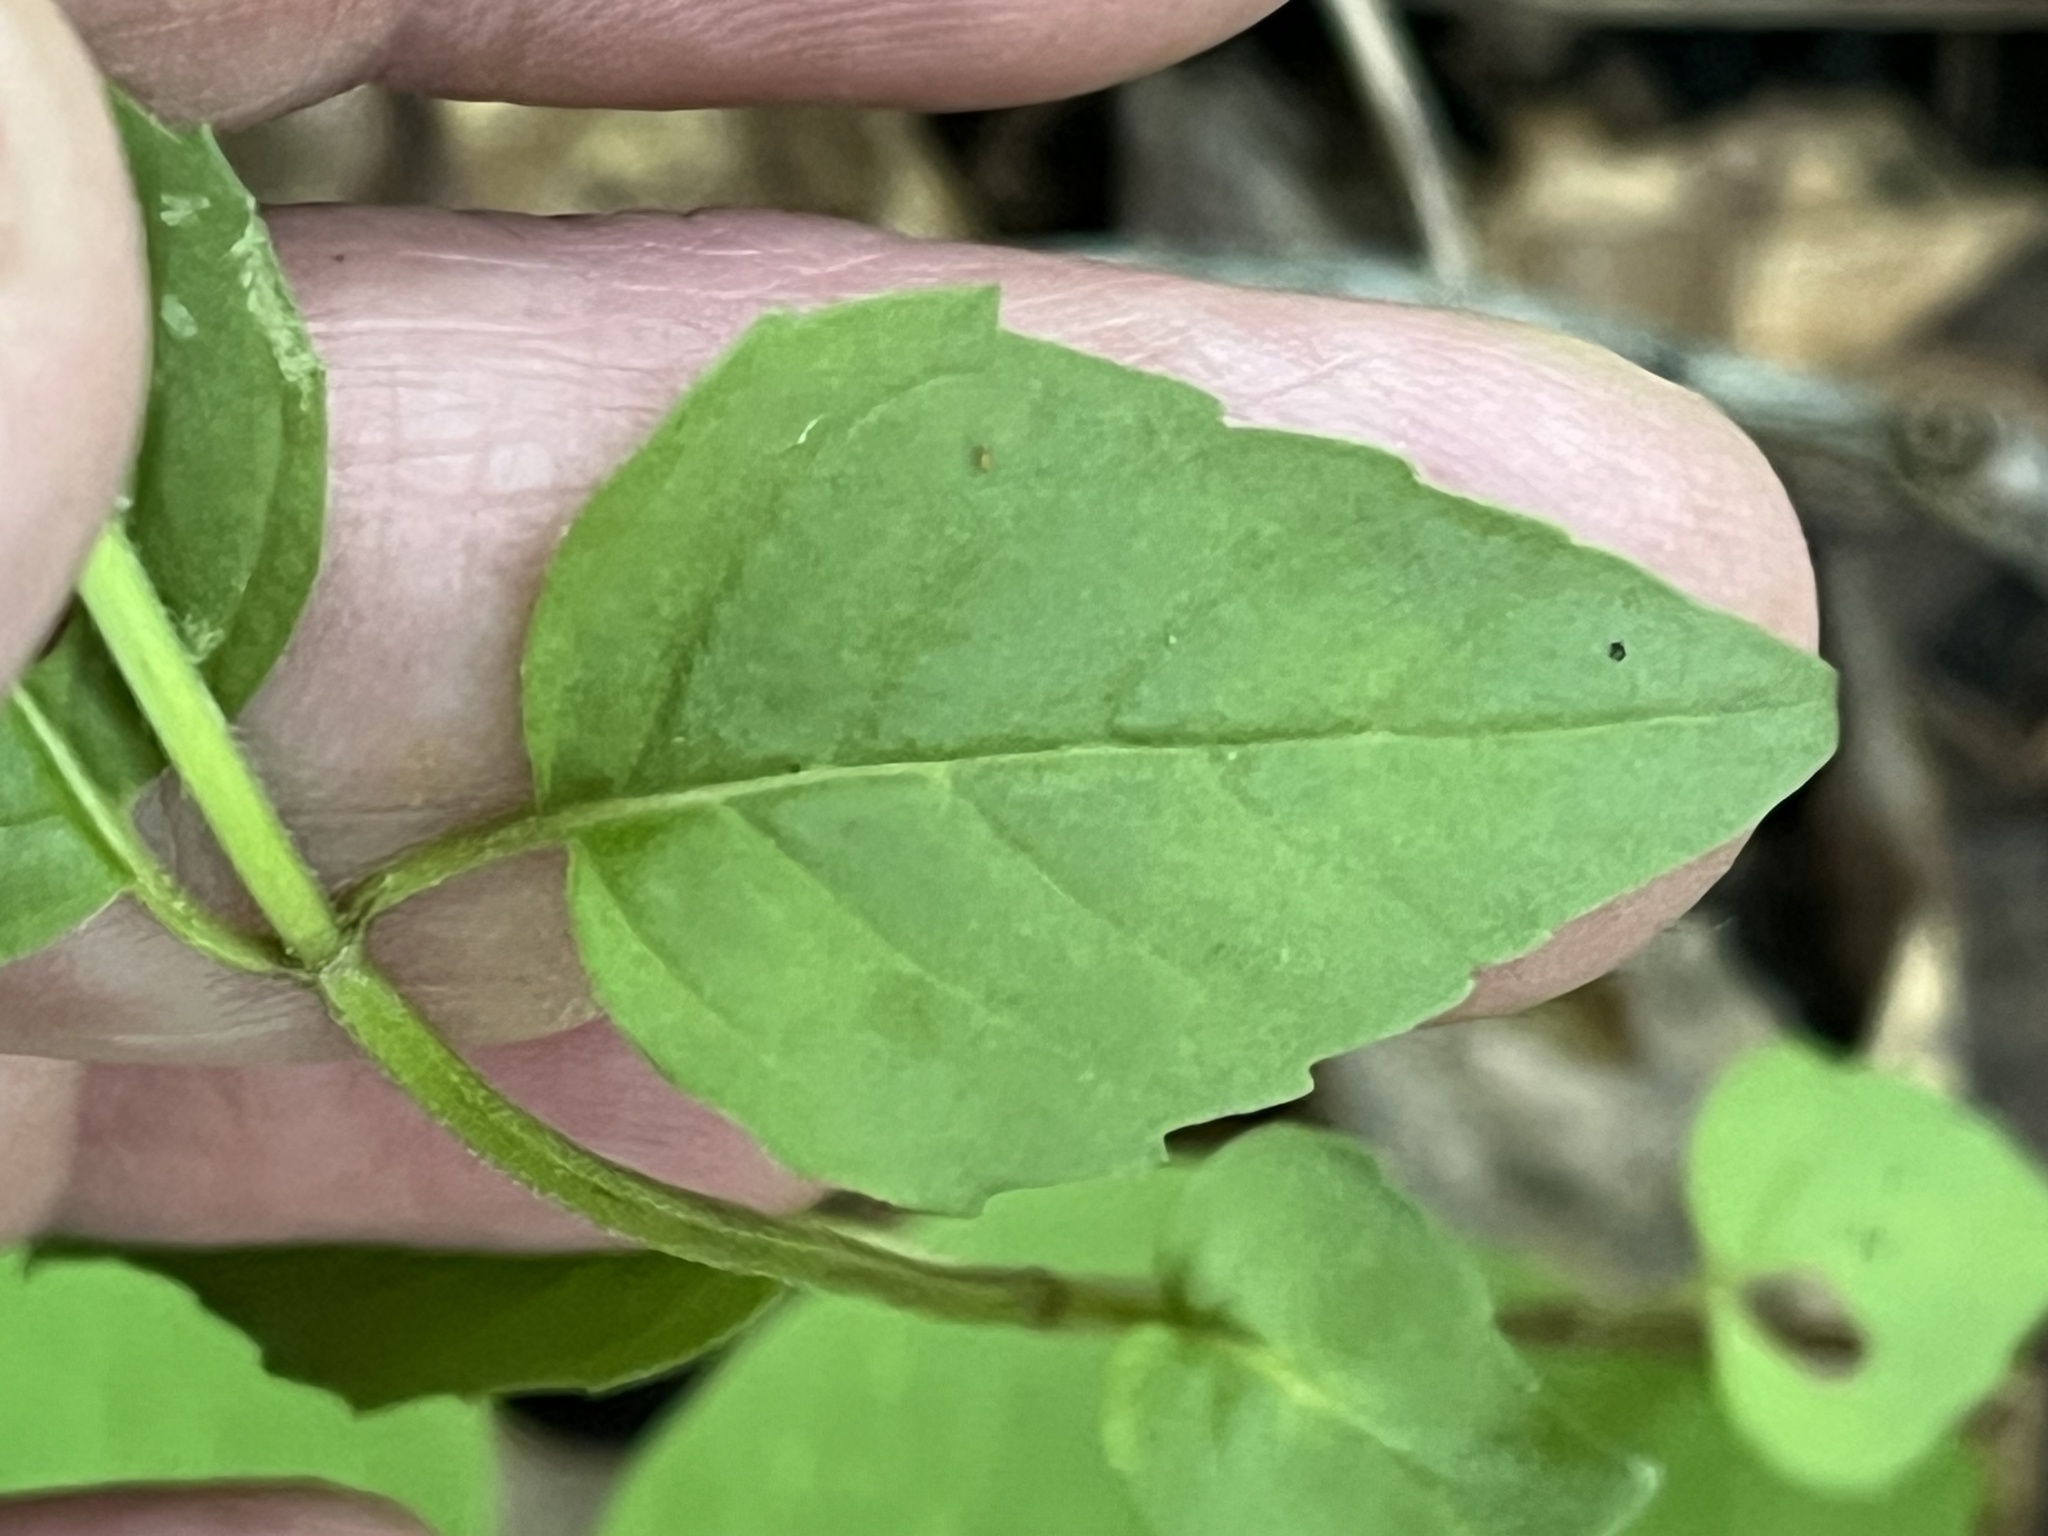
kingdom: Plantae
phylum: Tracheophyta
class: Magnoliopsida
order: Lamiales
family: Lamiaceae
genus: Blephilia
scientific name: Blephilia subnuda
